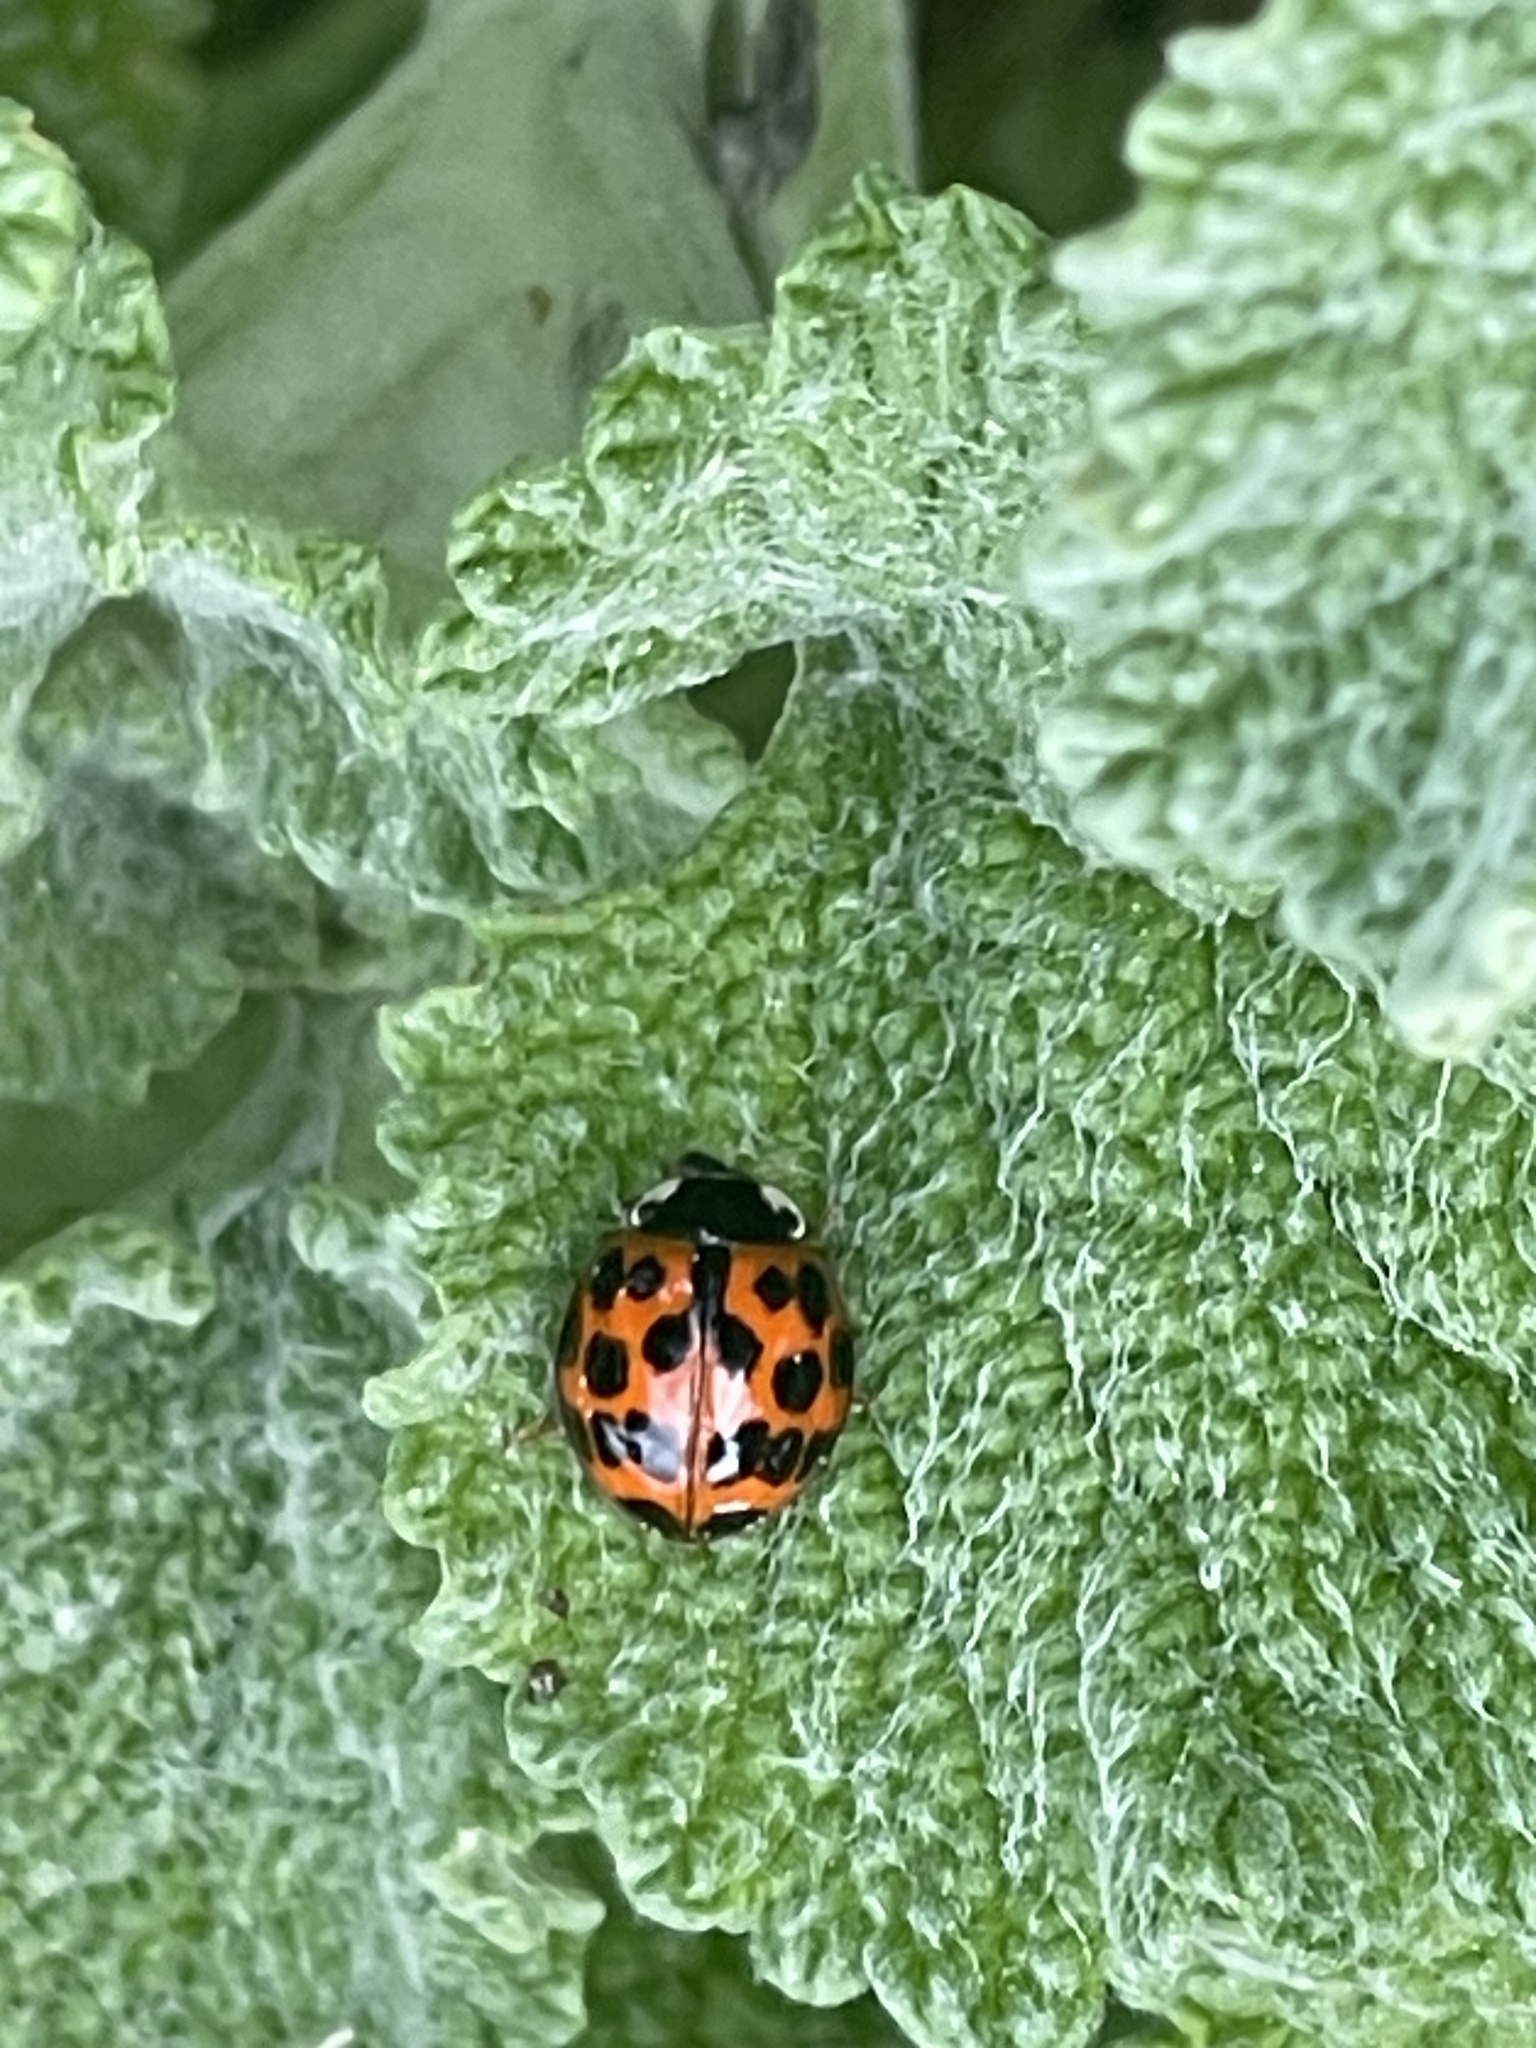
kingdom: Animalia
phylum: Arthropoda
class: Insecta
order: Coleoptera
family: Coccinellidae
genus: Harmonia
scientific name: Harmonia axyridis
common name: Harlequin ladybird
